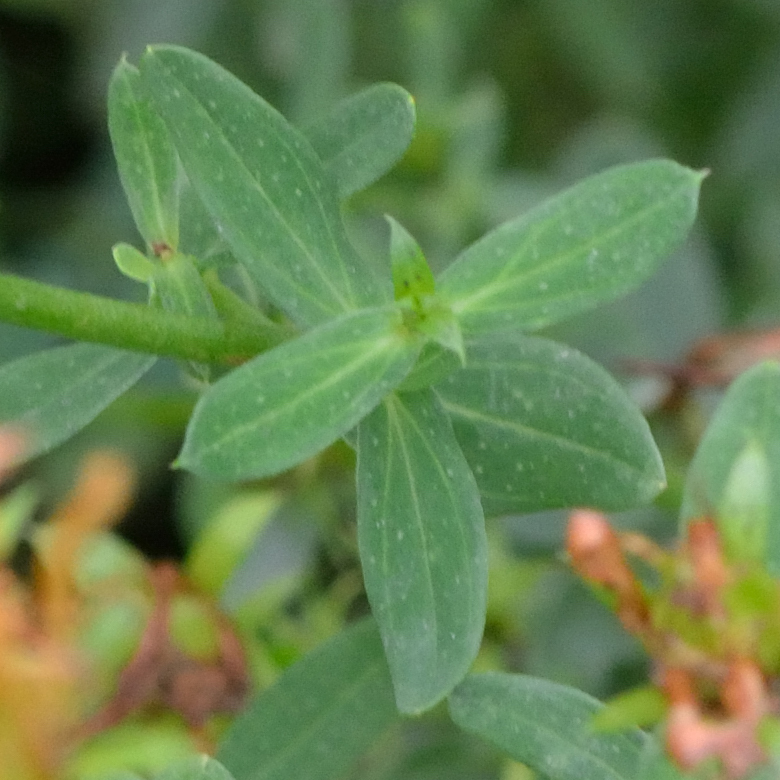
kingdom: Plantae
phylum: Tracheophyta
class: Magnoliopsida
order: Malpighiales
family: Hypericaceae
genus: Hypericum
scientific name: Hypericum perforatum
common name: Common st. johnswort
